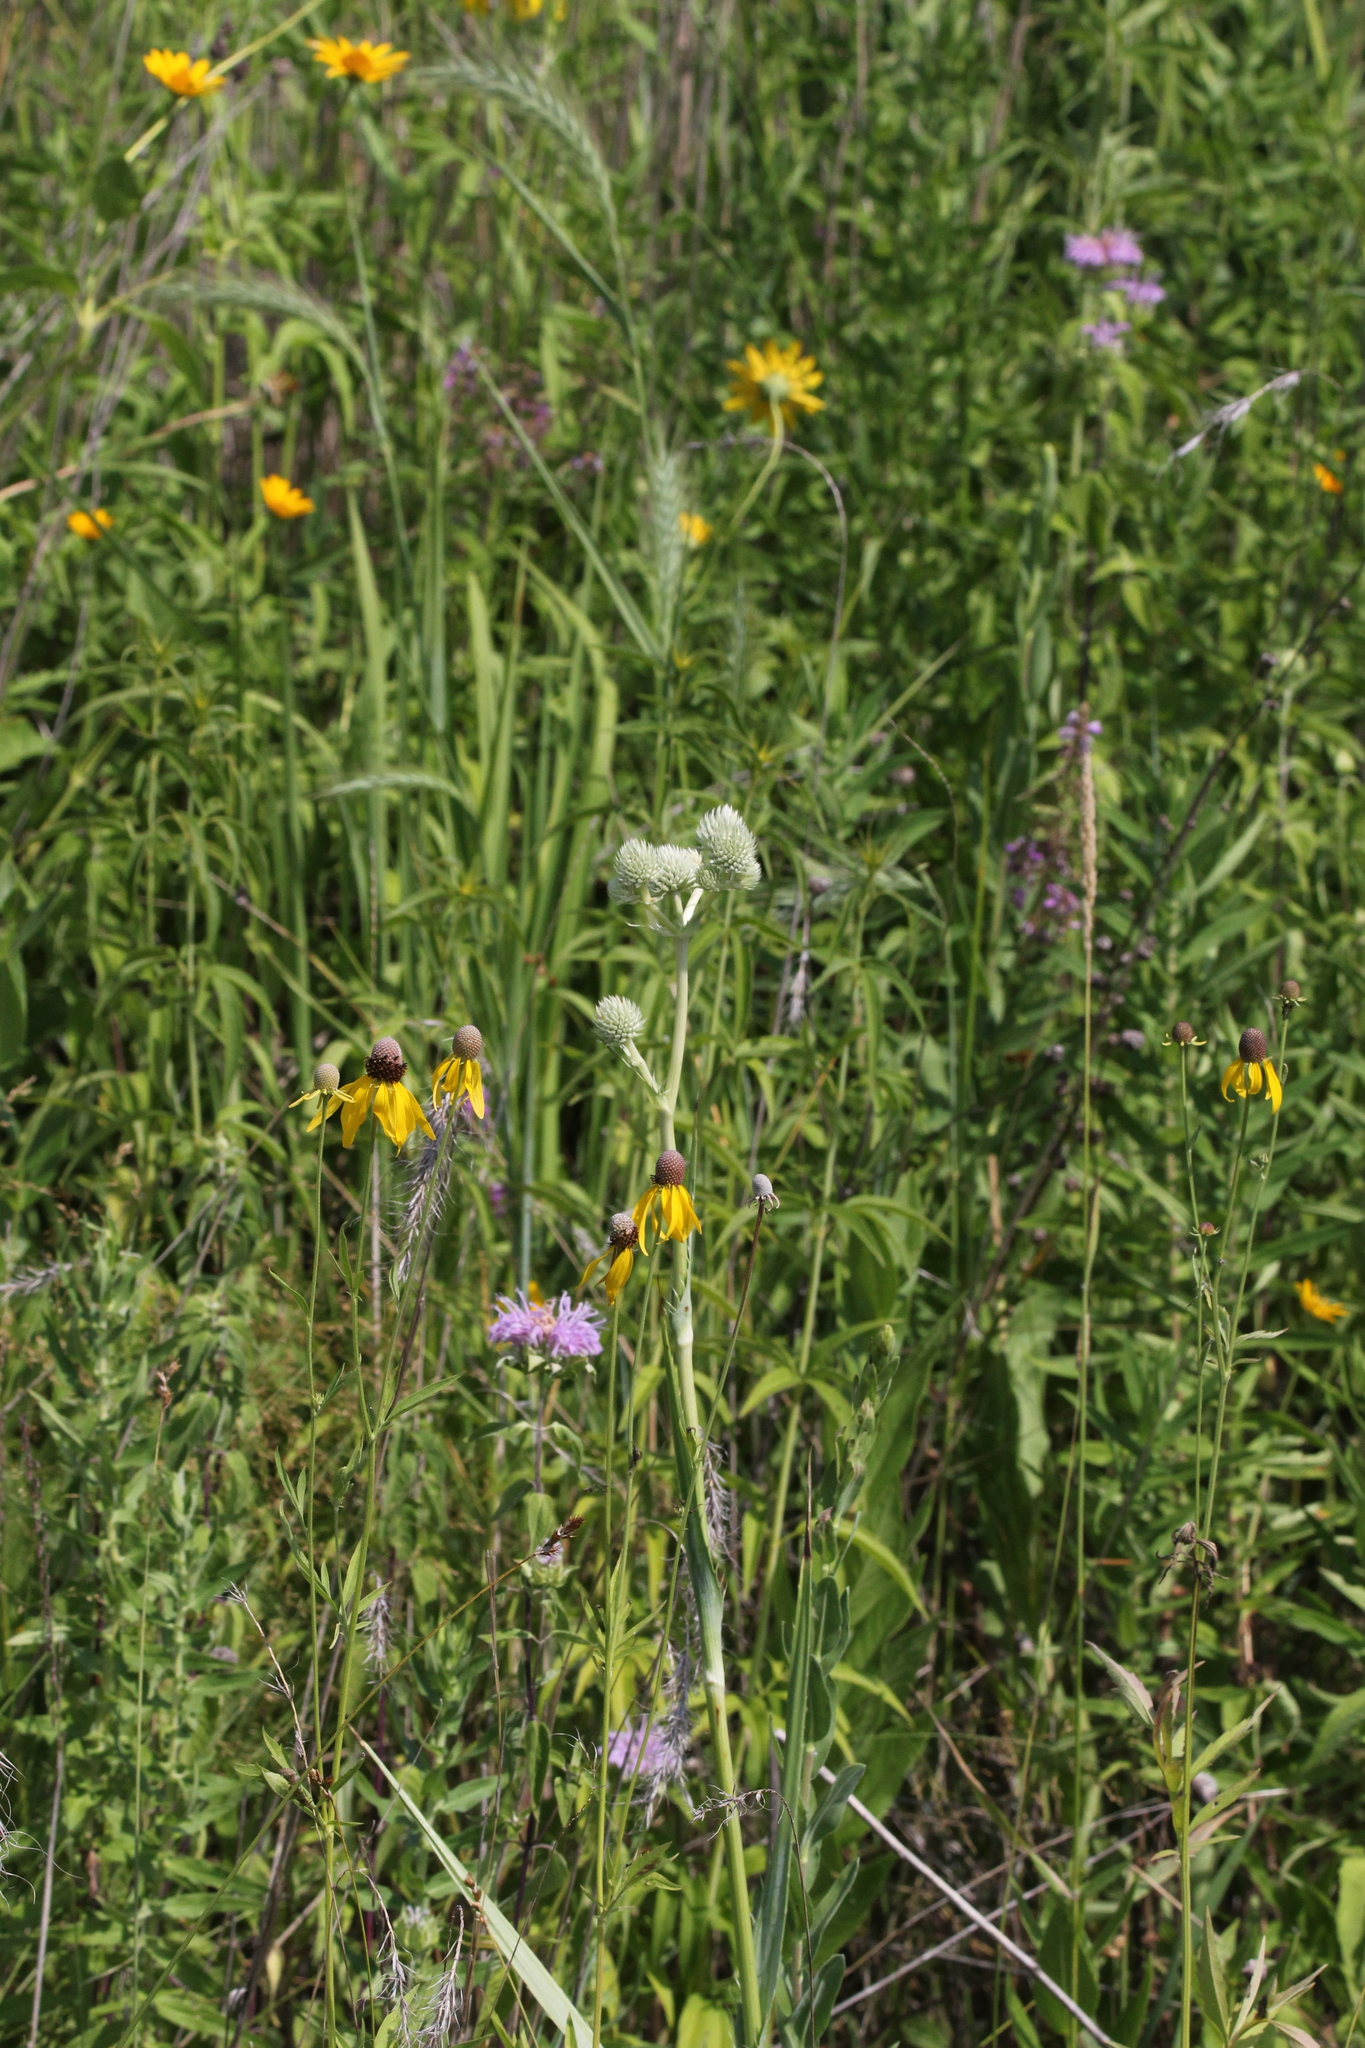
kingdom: Plantae
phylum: Tracheophyta
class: Magnoliopsida
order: Apiales
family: Apiaceae
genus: Eryngium
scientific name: Eryngium yuccifolium
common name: Button eryngo
